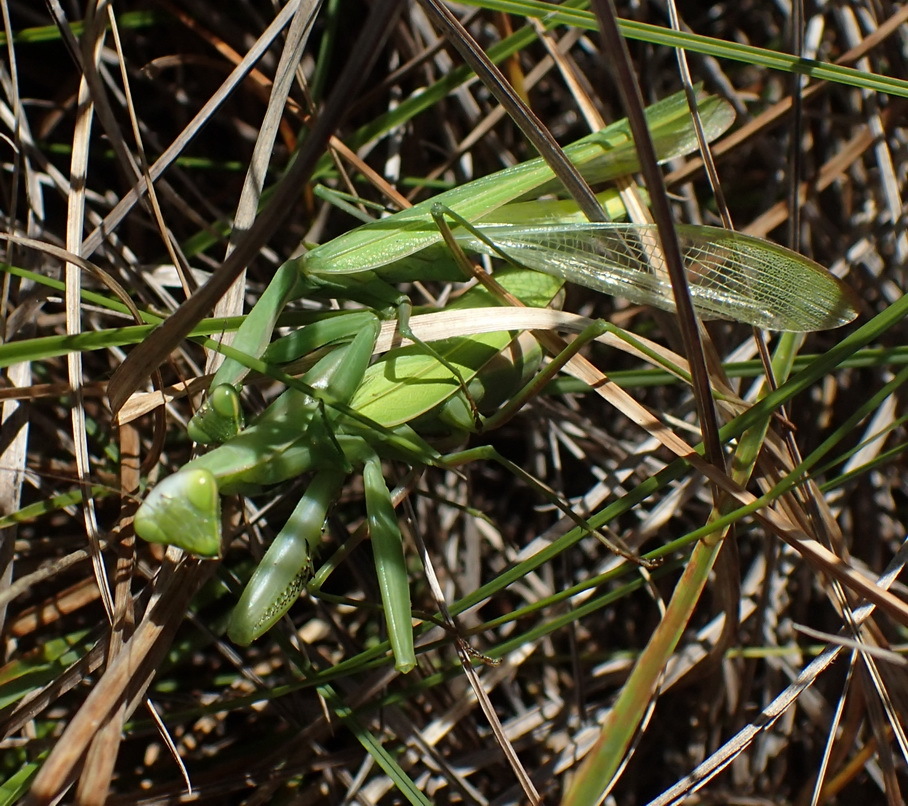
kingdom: Animalia
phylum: Arthropoda
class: Insecta
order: Mantodea
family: Mantidae
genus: Paramantis
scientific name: Paramantis sacra
